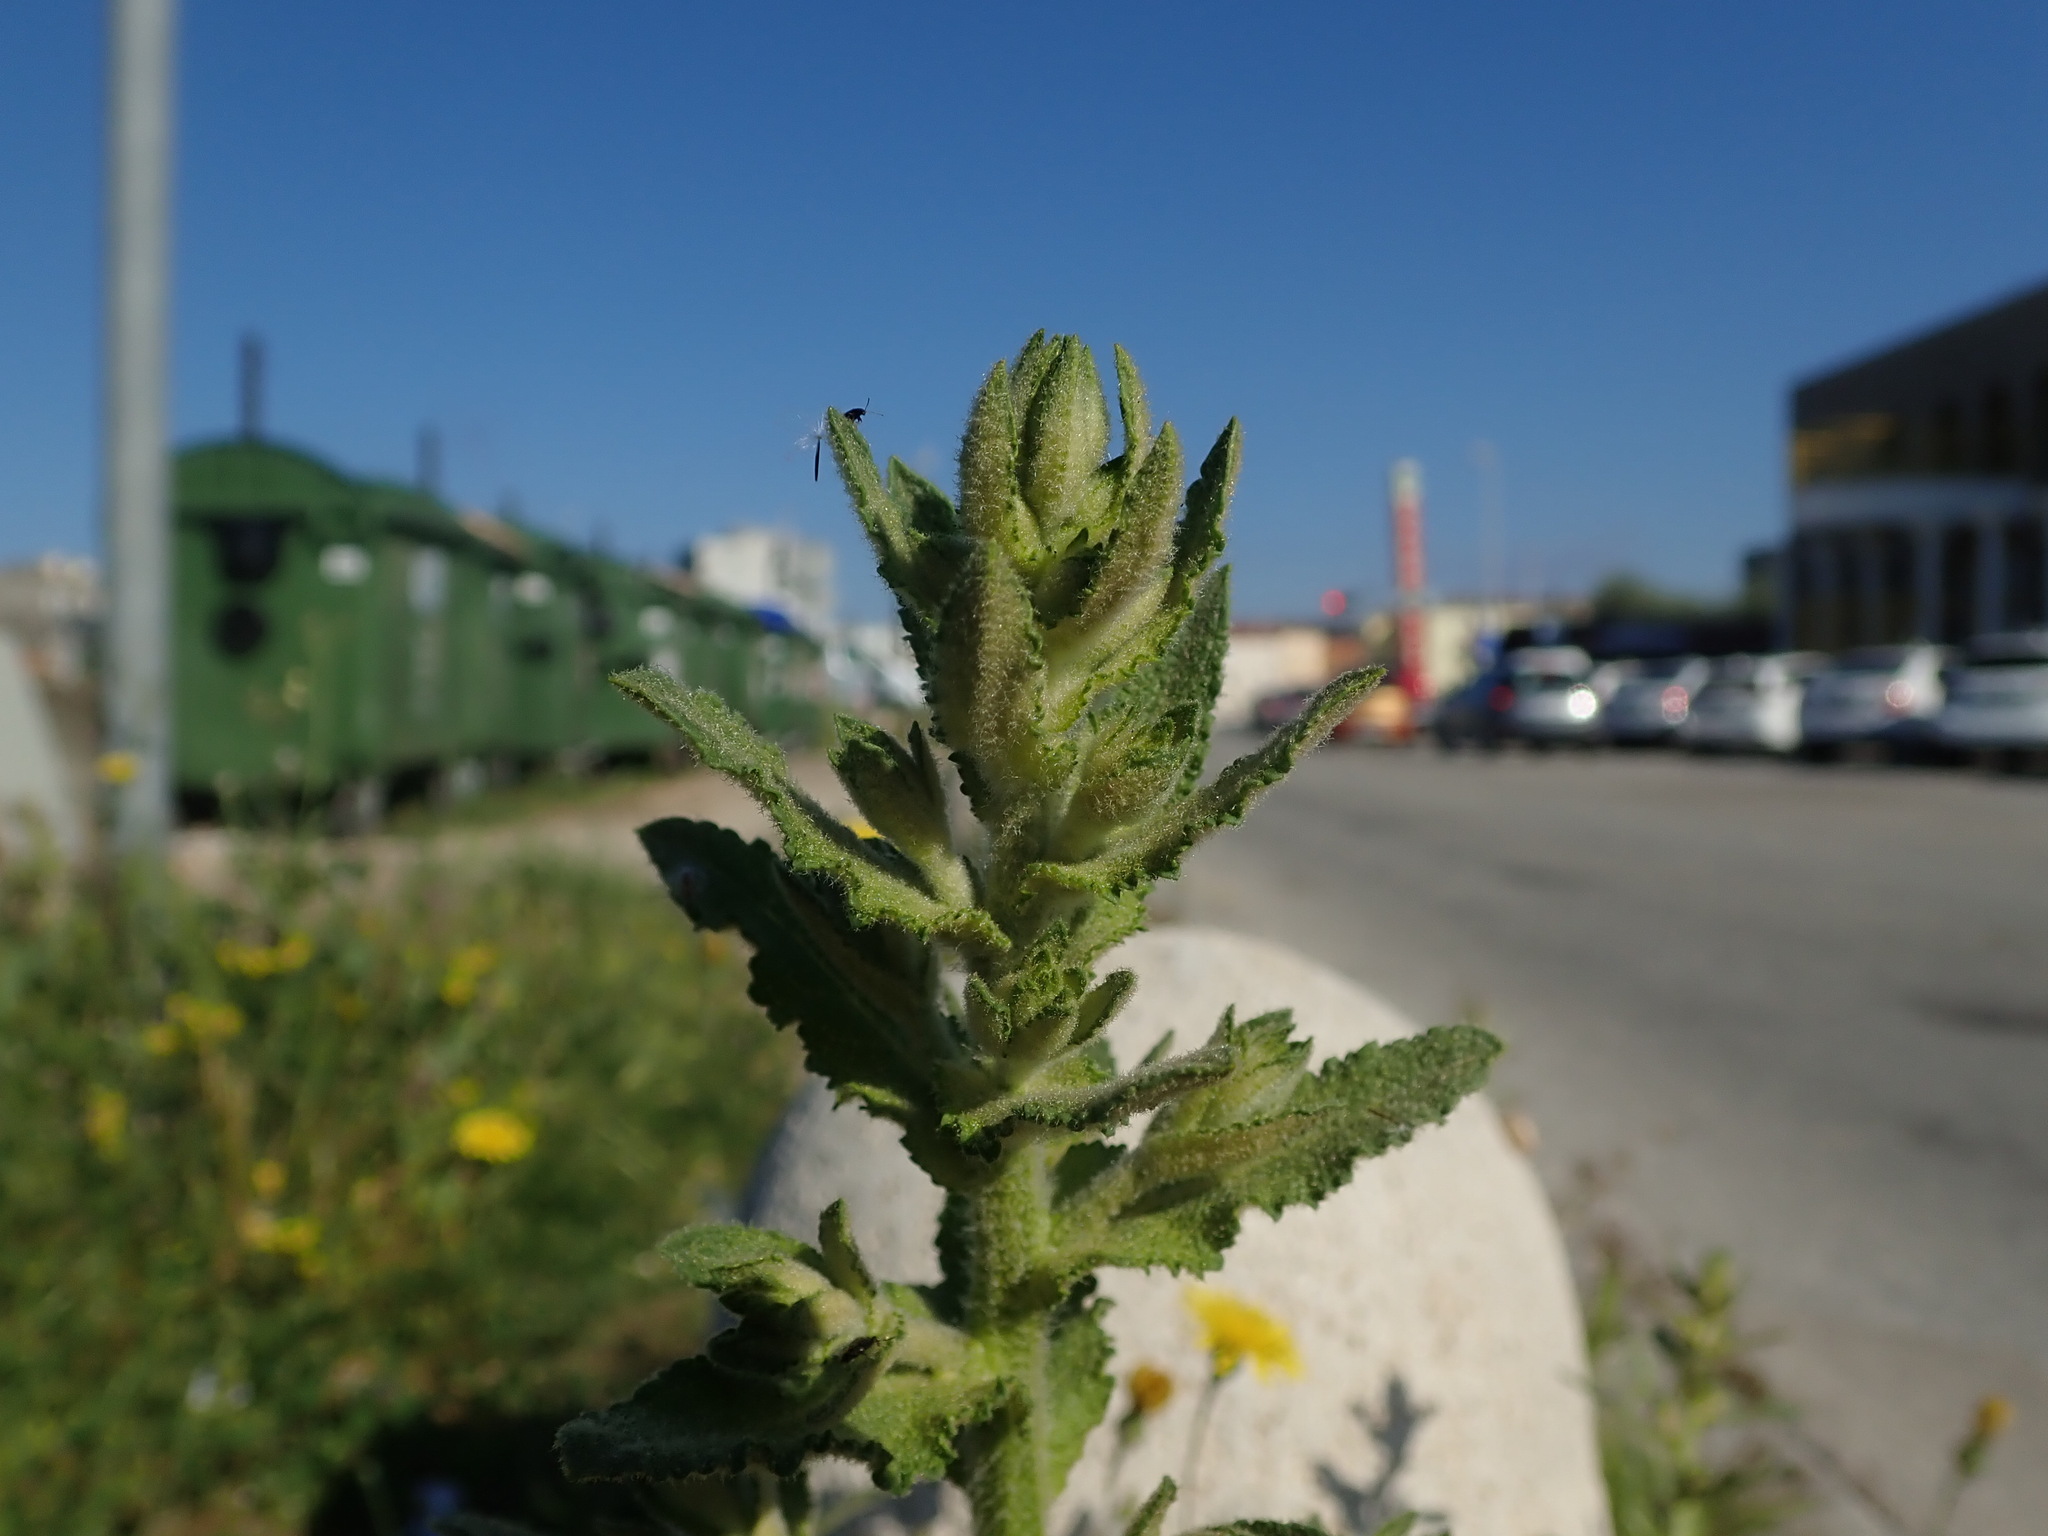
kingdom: Plantae
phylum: Tracheophyta
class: Magnoliopsida
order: Lamiales
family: Scrophulariaceae
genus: Verbascum
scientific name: Verbascum sinuatum
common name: Wavyleaf mullein
